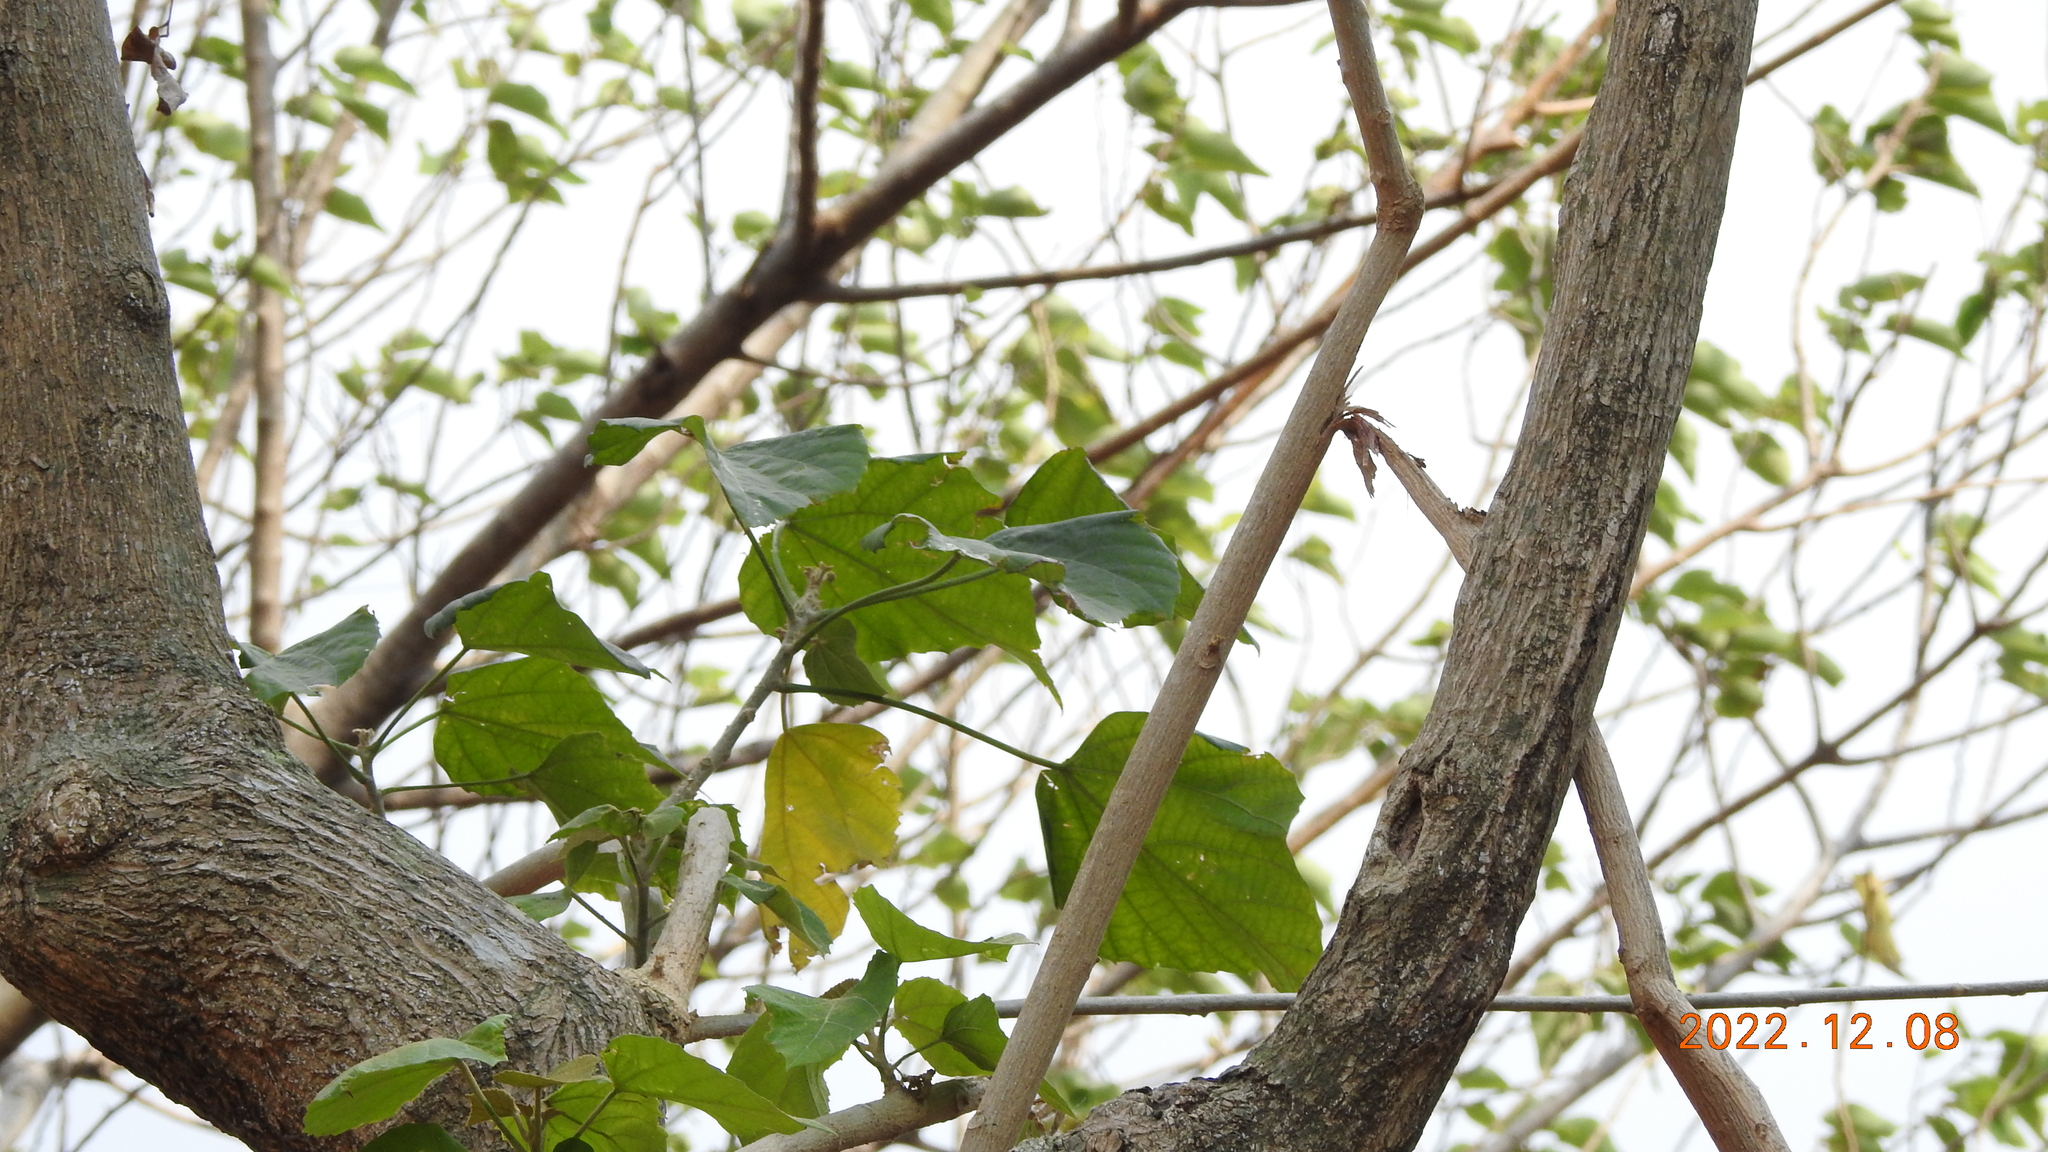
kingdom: Plantae
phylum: Tracheophyta
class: Magnoliopsida
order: Malpighiales
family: Euphorbiaceae
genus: Melanolepis
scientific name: Melanolepis multiglandulosa
